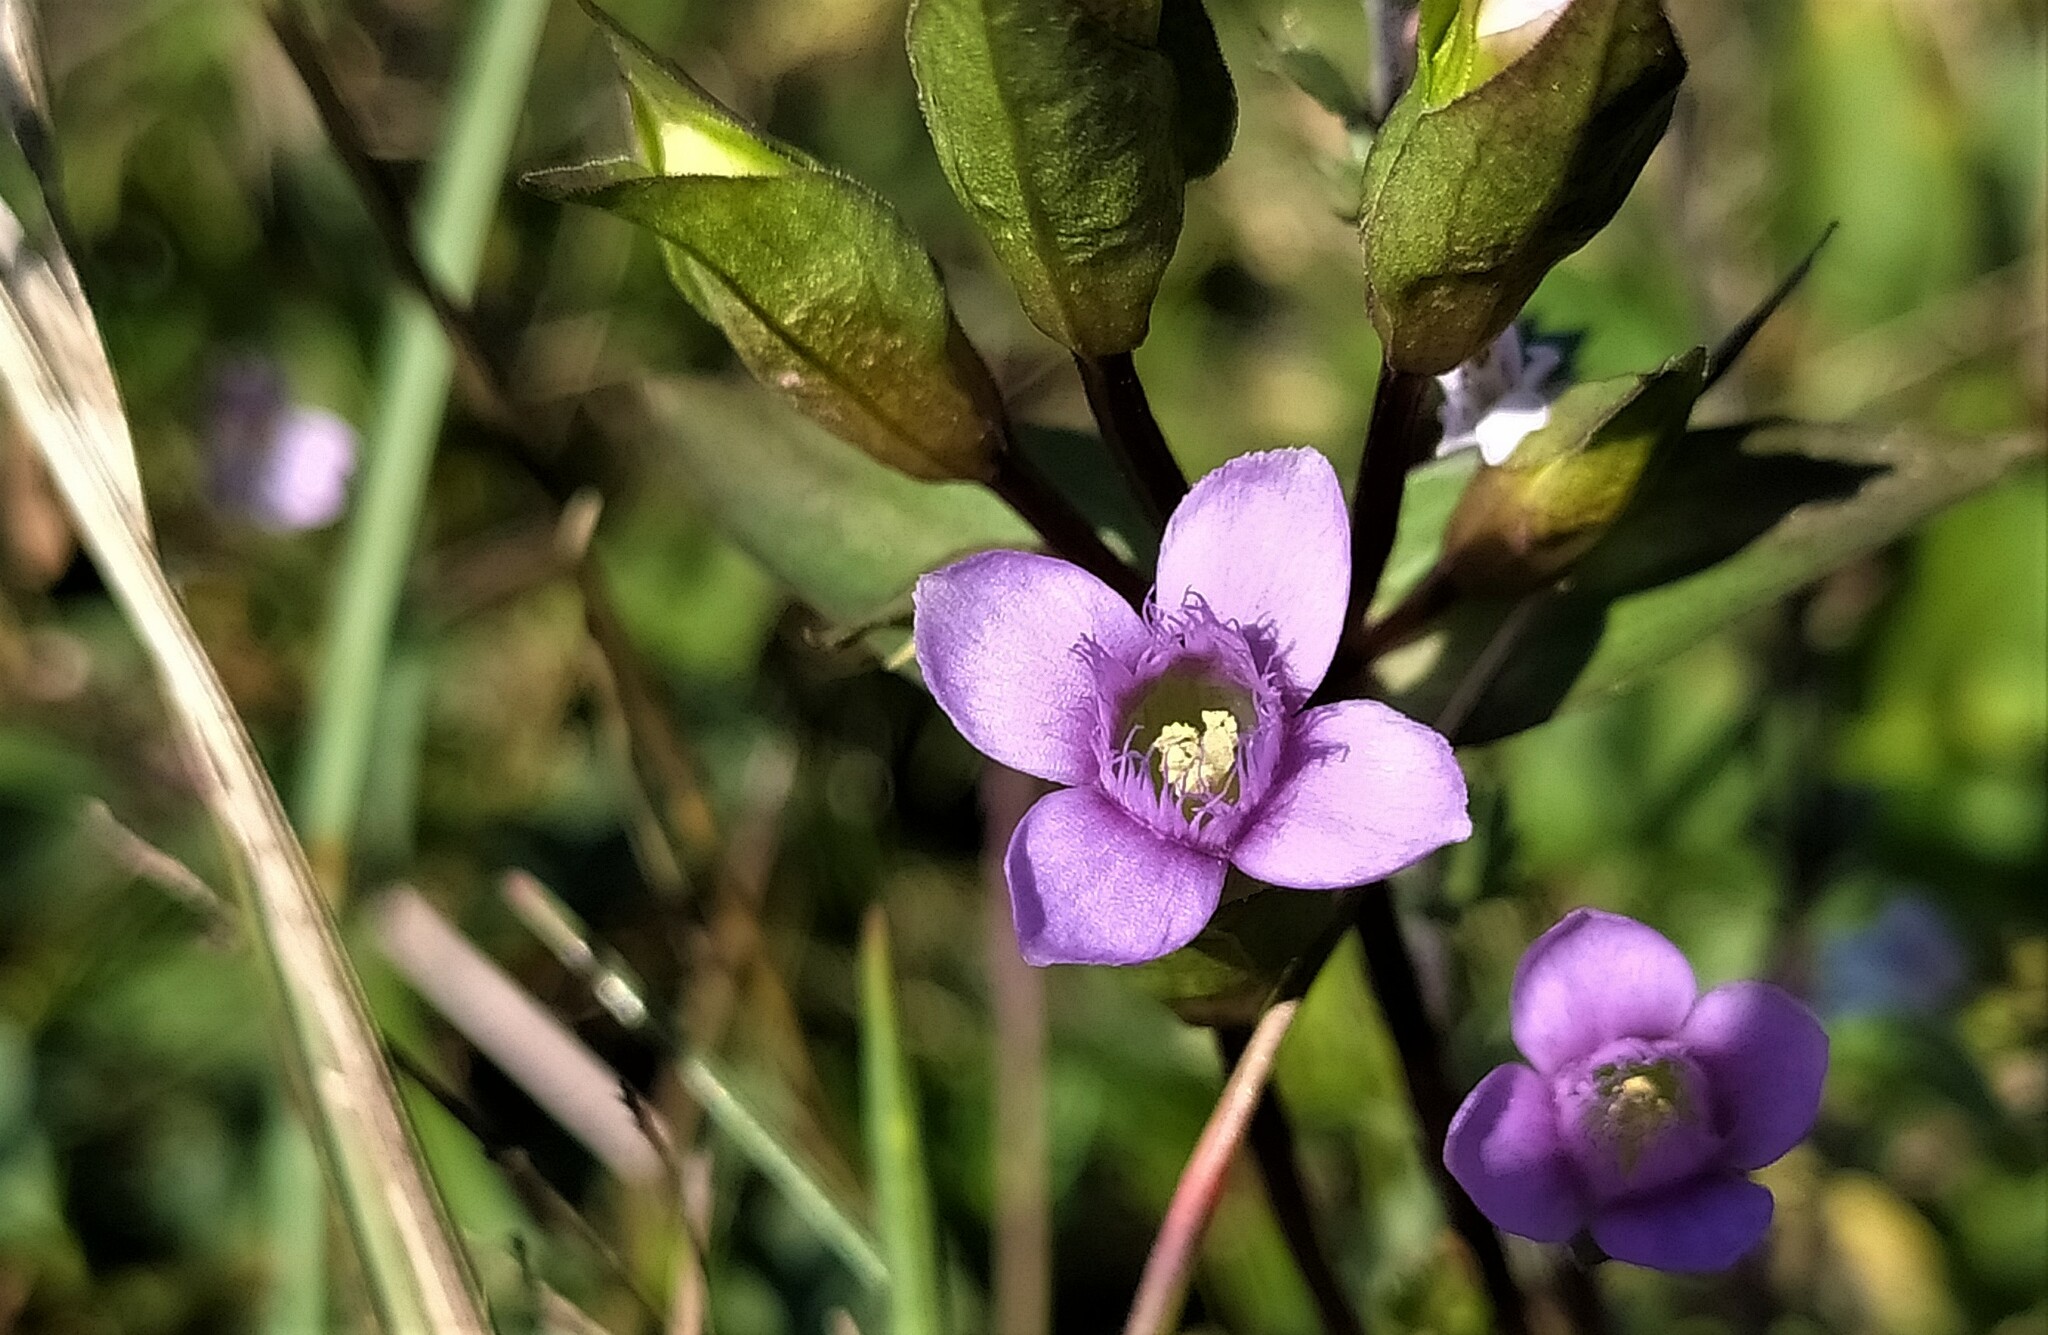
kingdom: Plantae
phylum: Tracheophyta
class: Magnoliopsida
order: Gentianales
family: Gentianaceae
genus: Gentianella
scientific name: Gentianella campestris
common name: Field gentian
